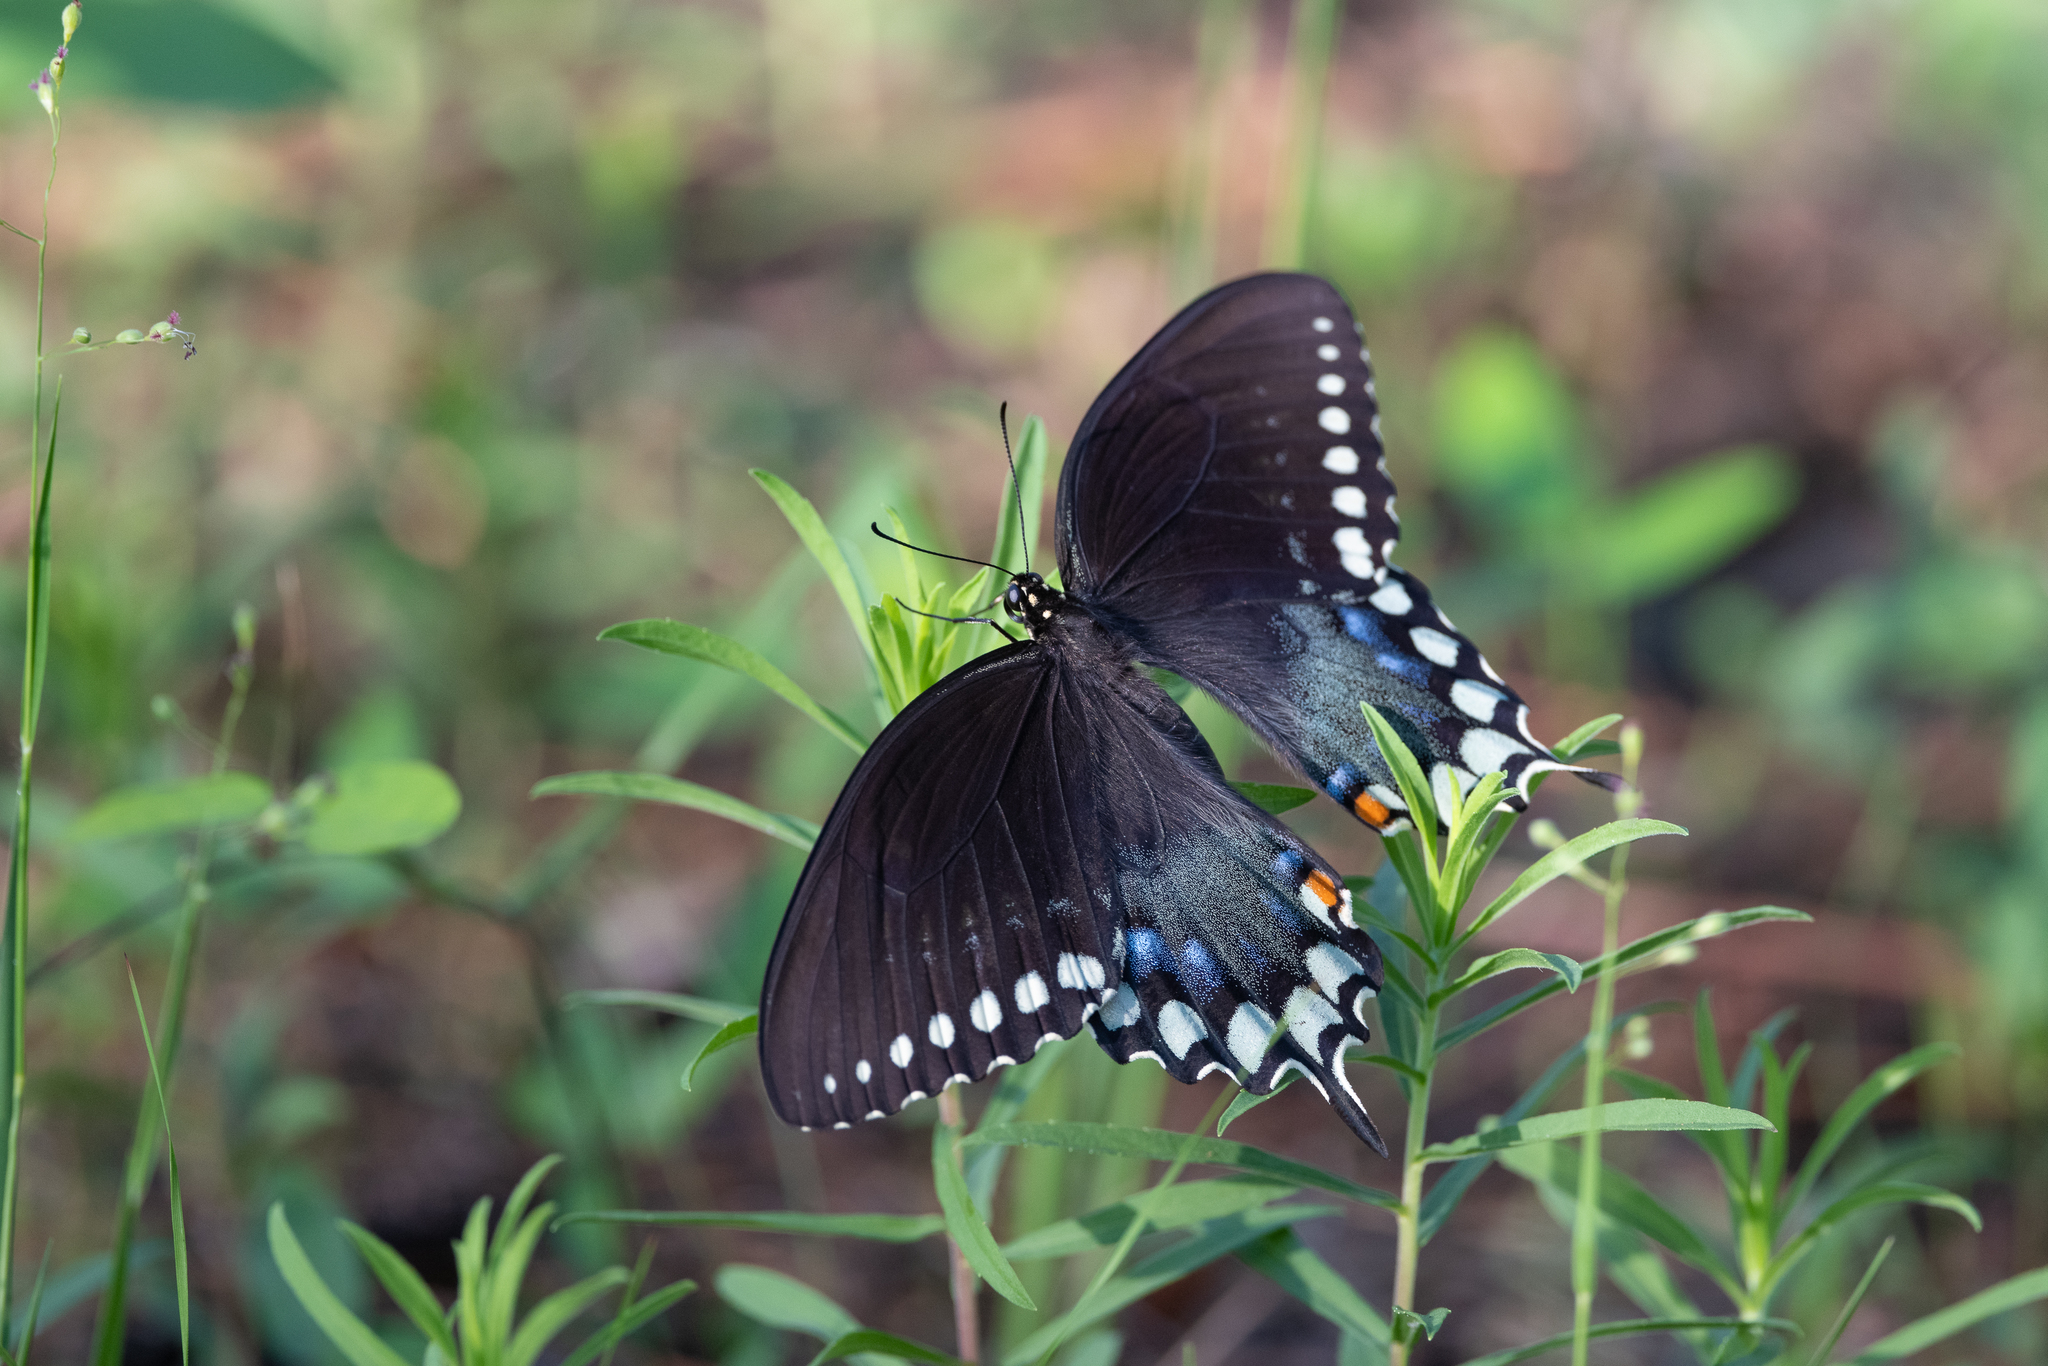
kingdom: Animalia
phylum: Arthropoda
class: Insecta
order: Lepidoptera
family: Papilionidae
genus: Papilio
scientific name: Papilio troilus
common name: Spicebush swallowtail
